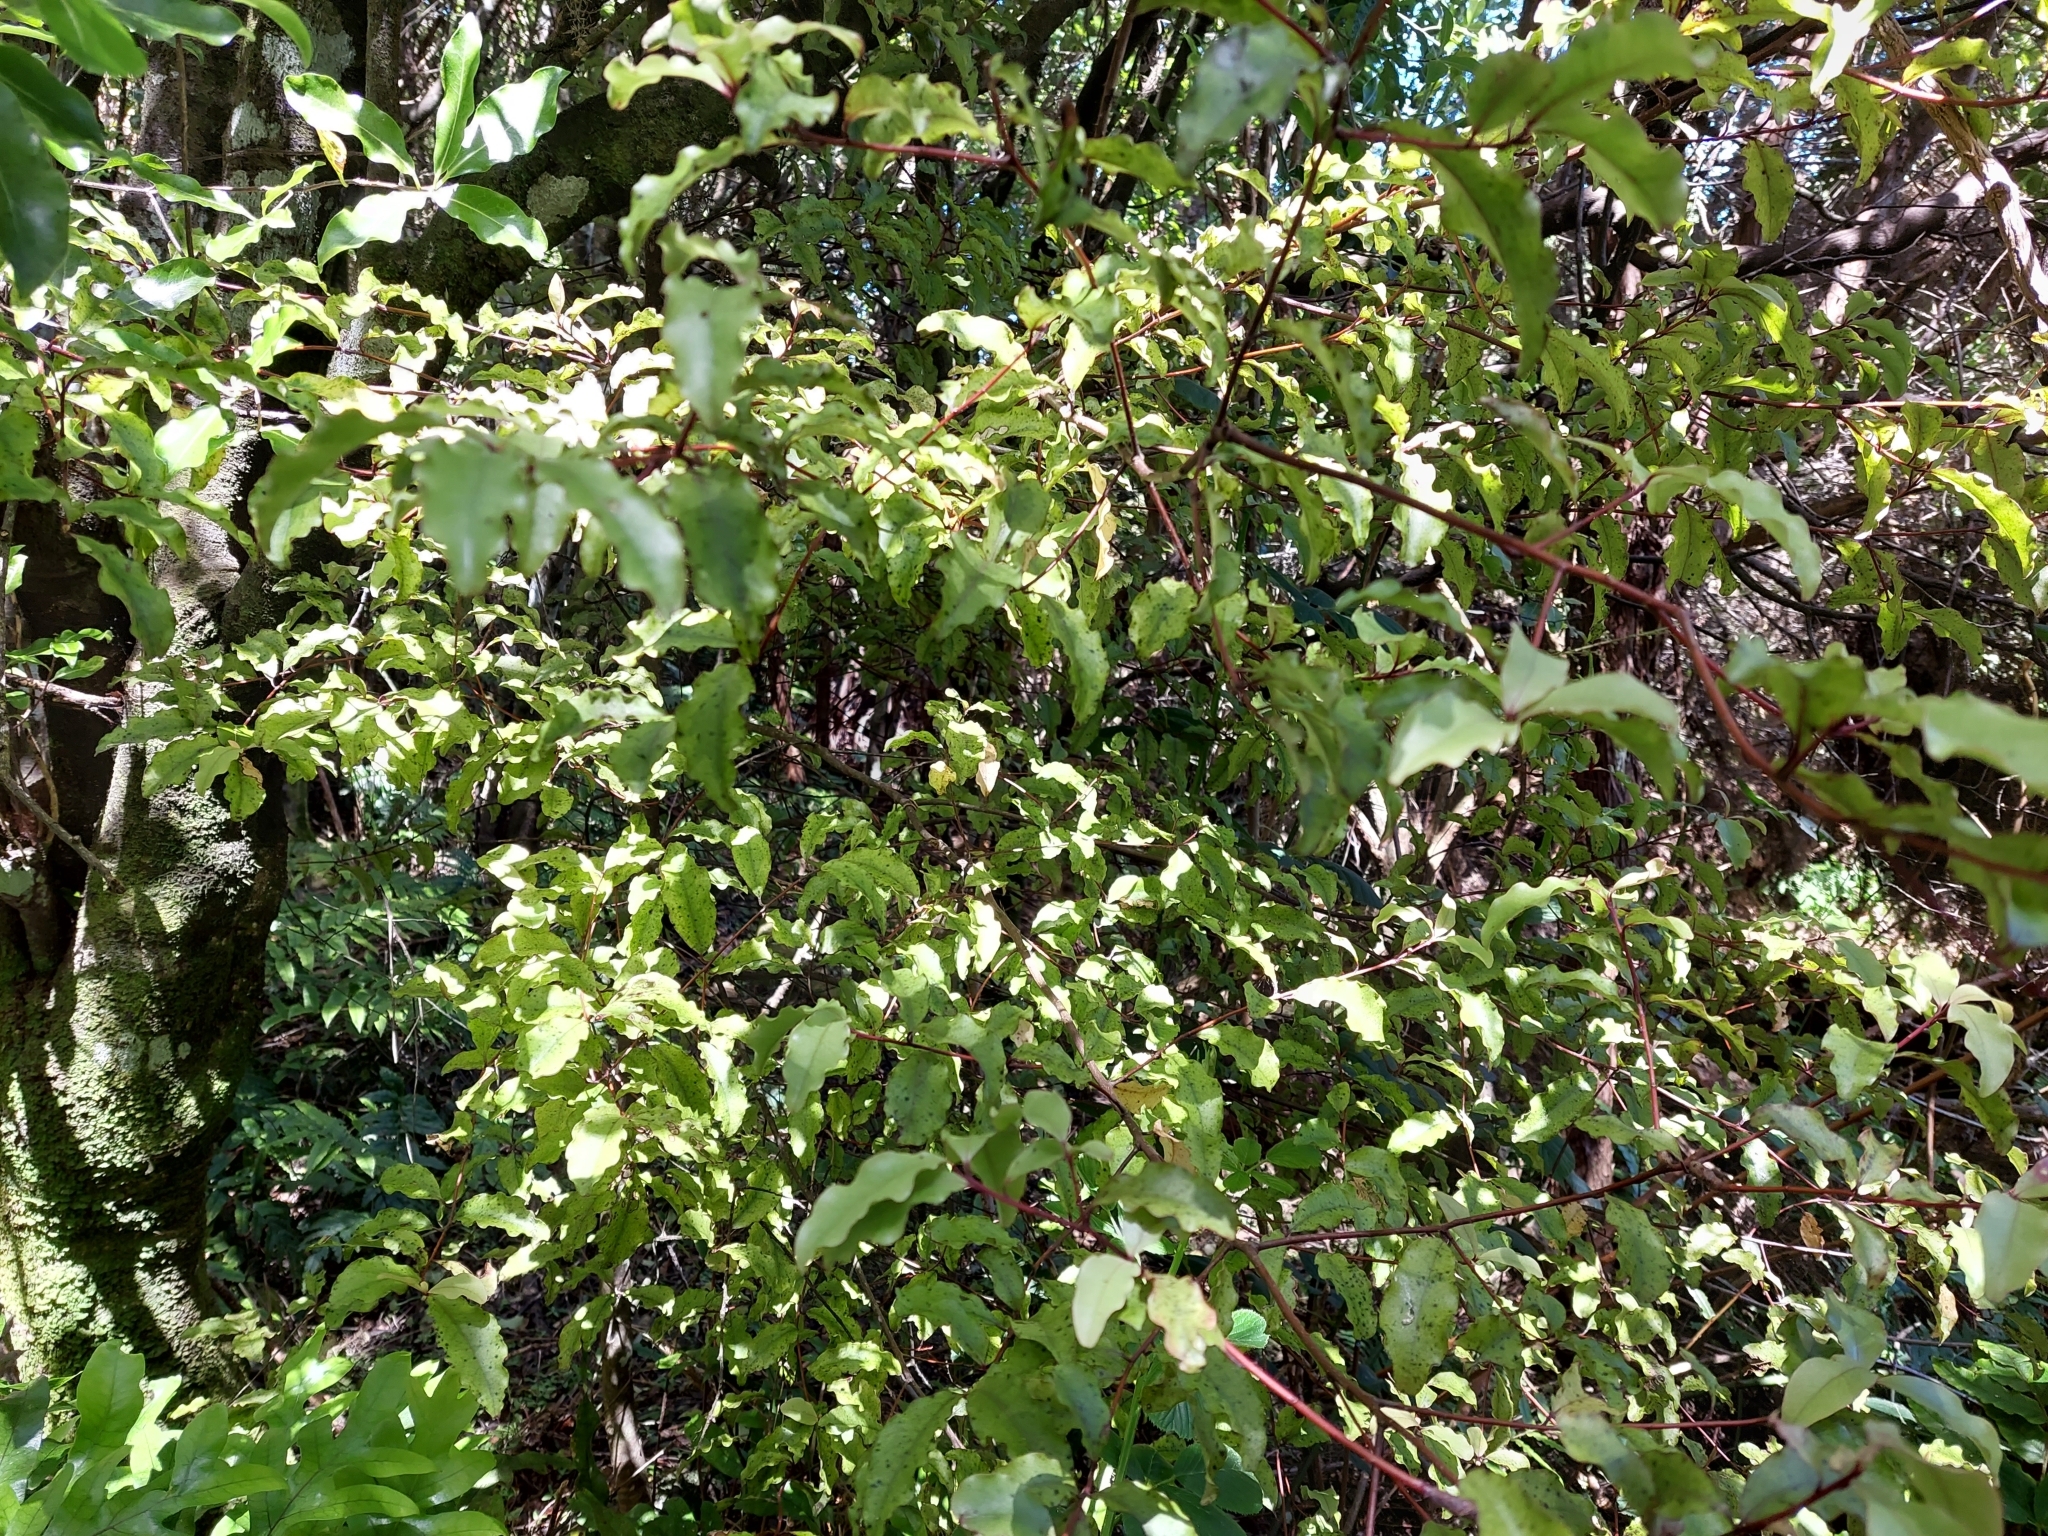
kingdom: Plantae
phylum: Tracheophyta
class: Magnoliopsida
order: Ericales
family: Primulaceae
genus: Myrsine
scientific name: Myrsine australis
